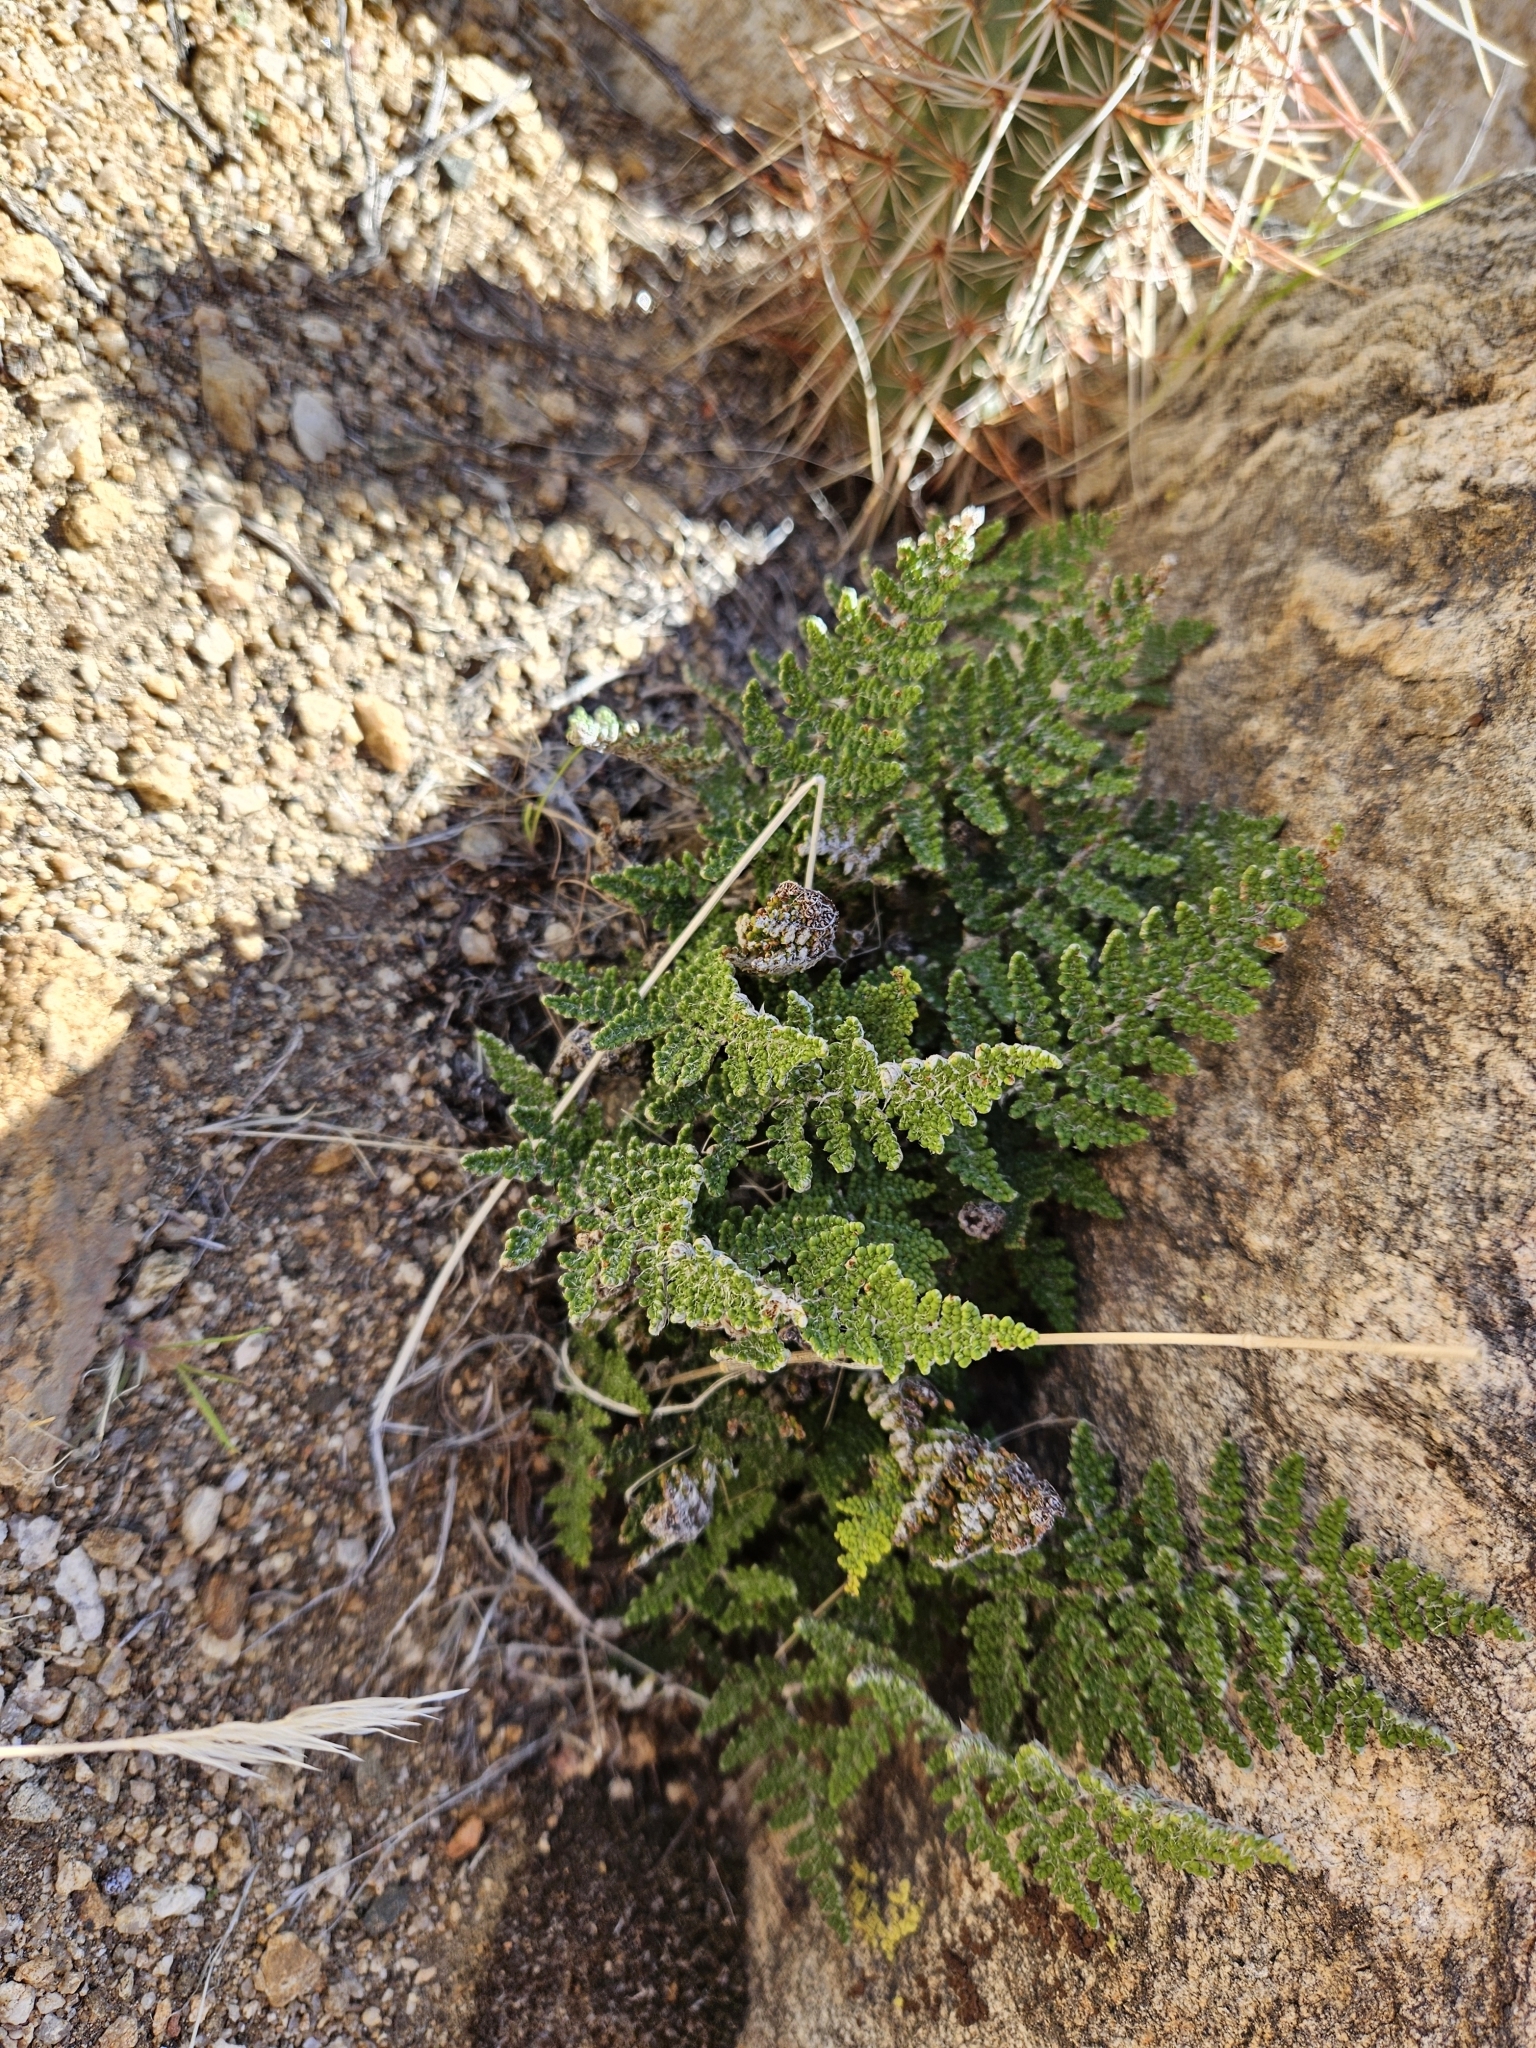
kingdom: Plantae
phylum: Tracheophyta
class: Polypodiopsida
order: Polypodiales
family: Pteridaceae
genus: Myriopteris
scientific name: Myriopteris covillei
